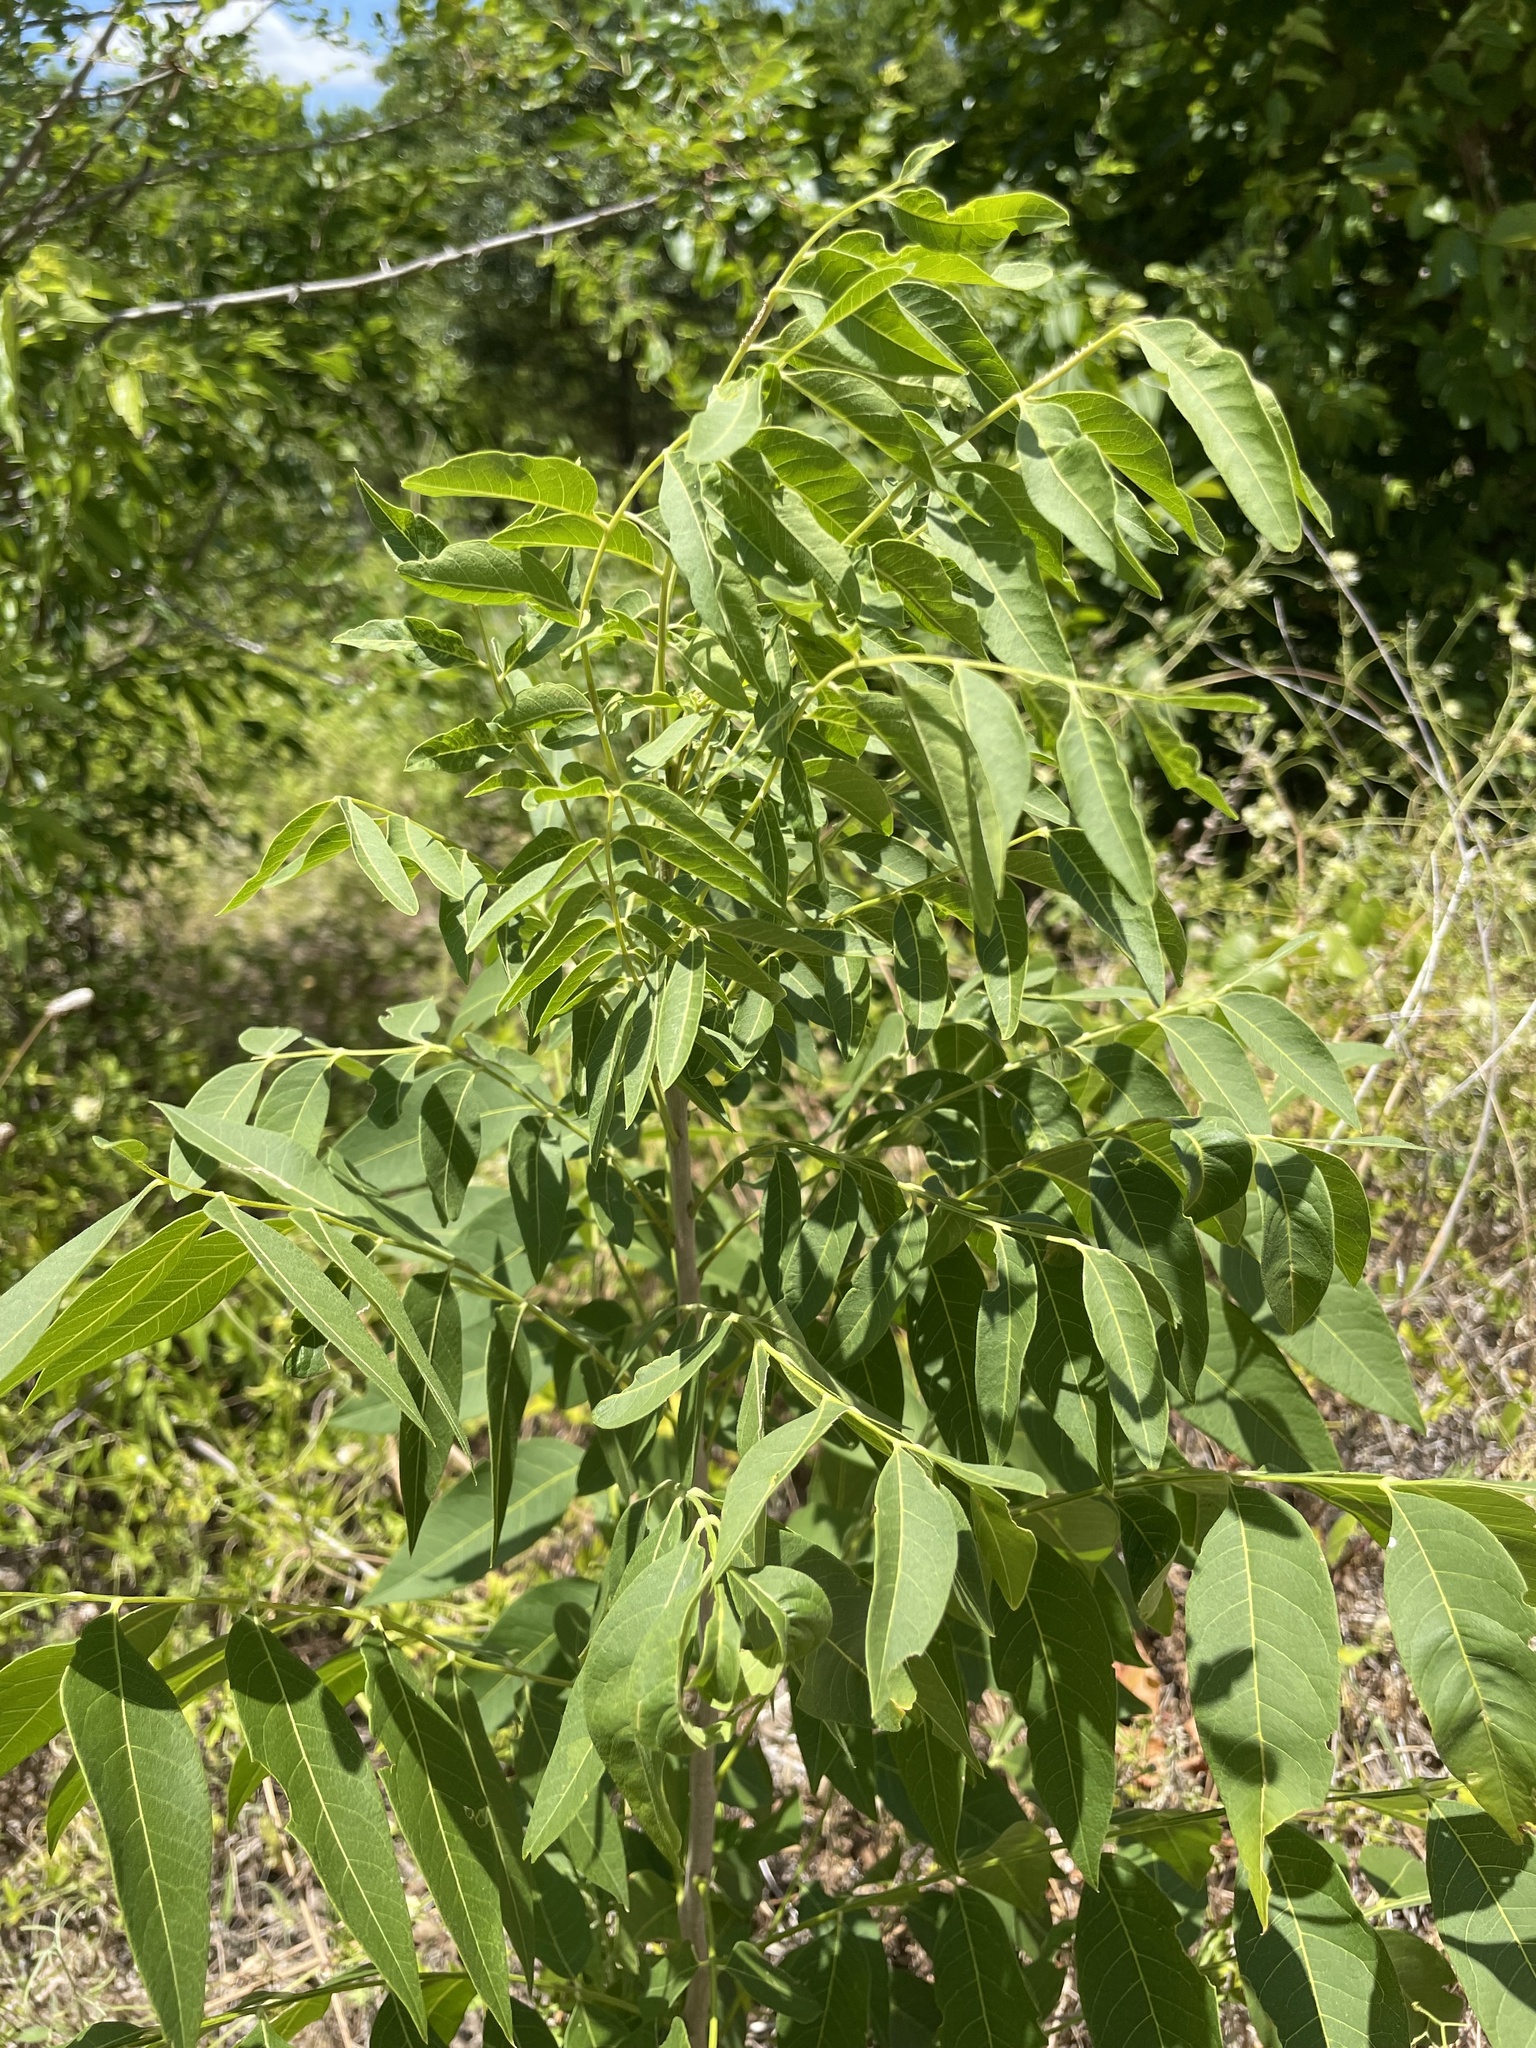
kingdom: Plantae
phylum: Tracheophyta
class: Magnoliopsida
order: Sapindales
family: Sapindaceae
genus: Sapindus
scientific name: Sapindus drummondii
